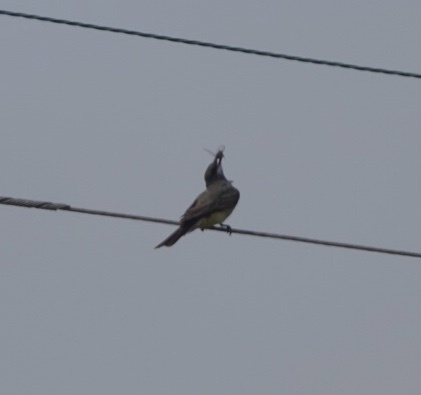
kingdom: Animalia
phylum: Chordata
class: Aves
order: Passeriformes
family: Tyrannidae
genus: Tyrannus
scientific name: Tyrannus vociferans
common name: Cassin's kingbird
